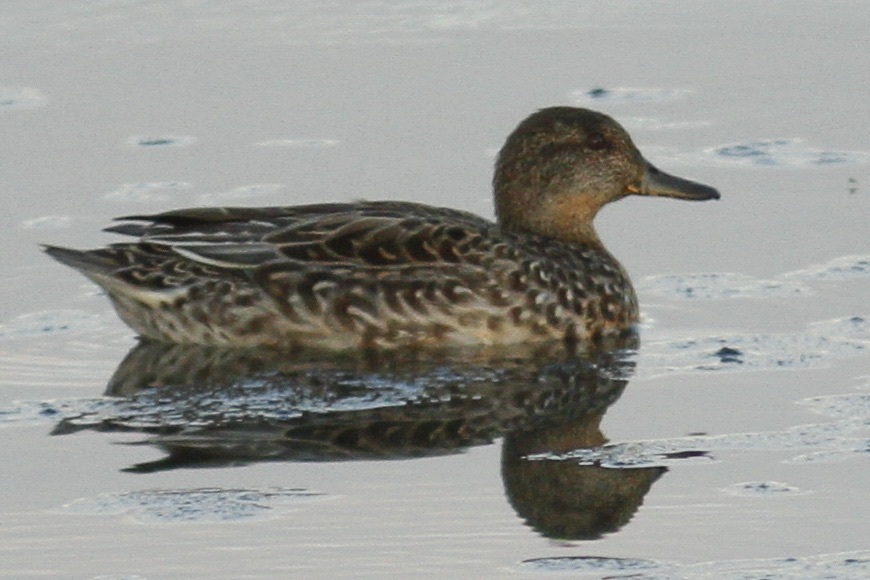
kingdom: Animalia
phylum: Chordata
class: Aves
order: Anseriformes
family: Anatidae
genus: Anas
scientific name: Anas crecca
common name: Eurasian teal
